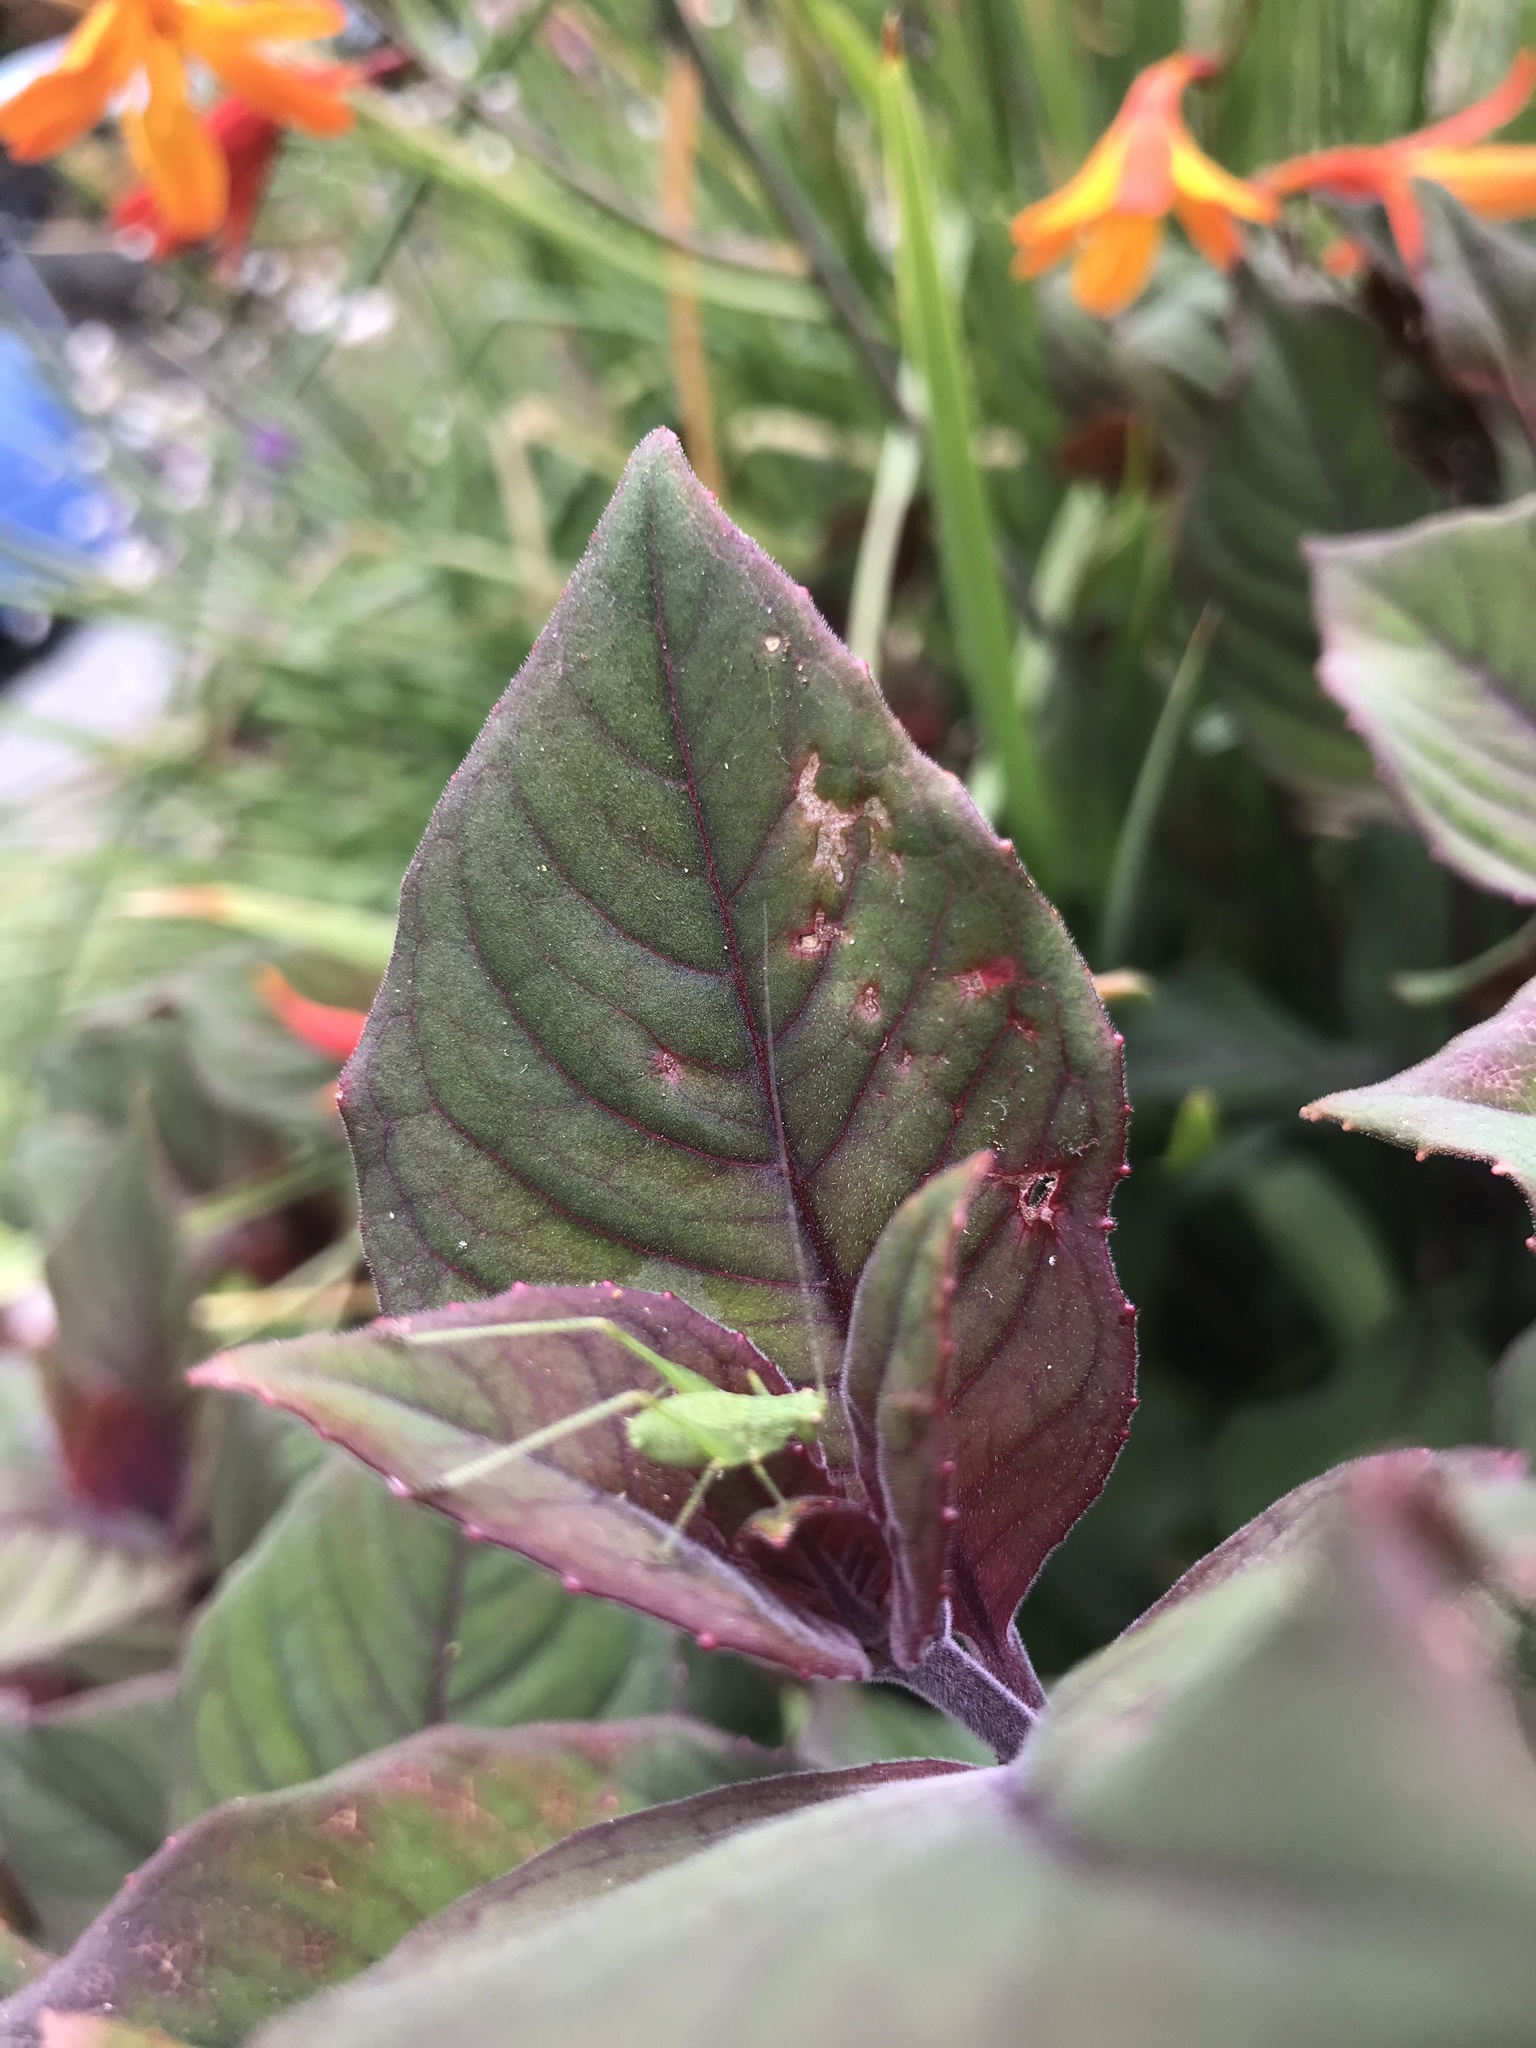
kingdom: Animalia
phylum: Arthropoda
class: Insecta
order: Orthoptera
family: Tettigoniidae
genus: Phaneroptera
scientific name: Phaneroptera nana
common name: Southern sickle bush-cricket
